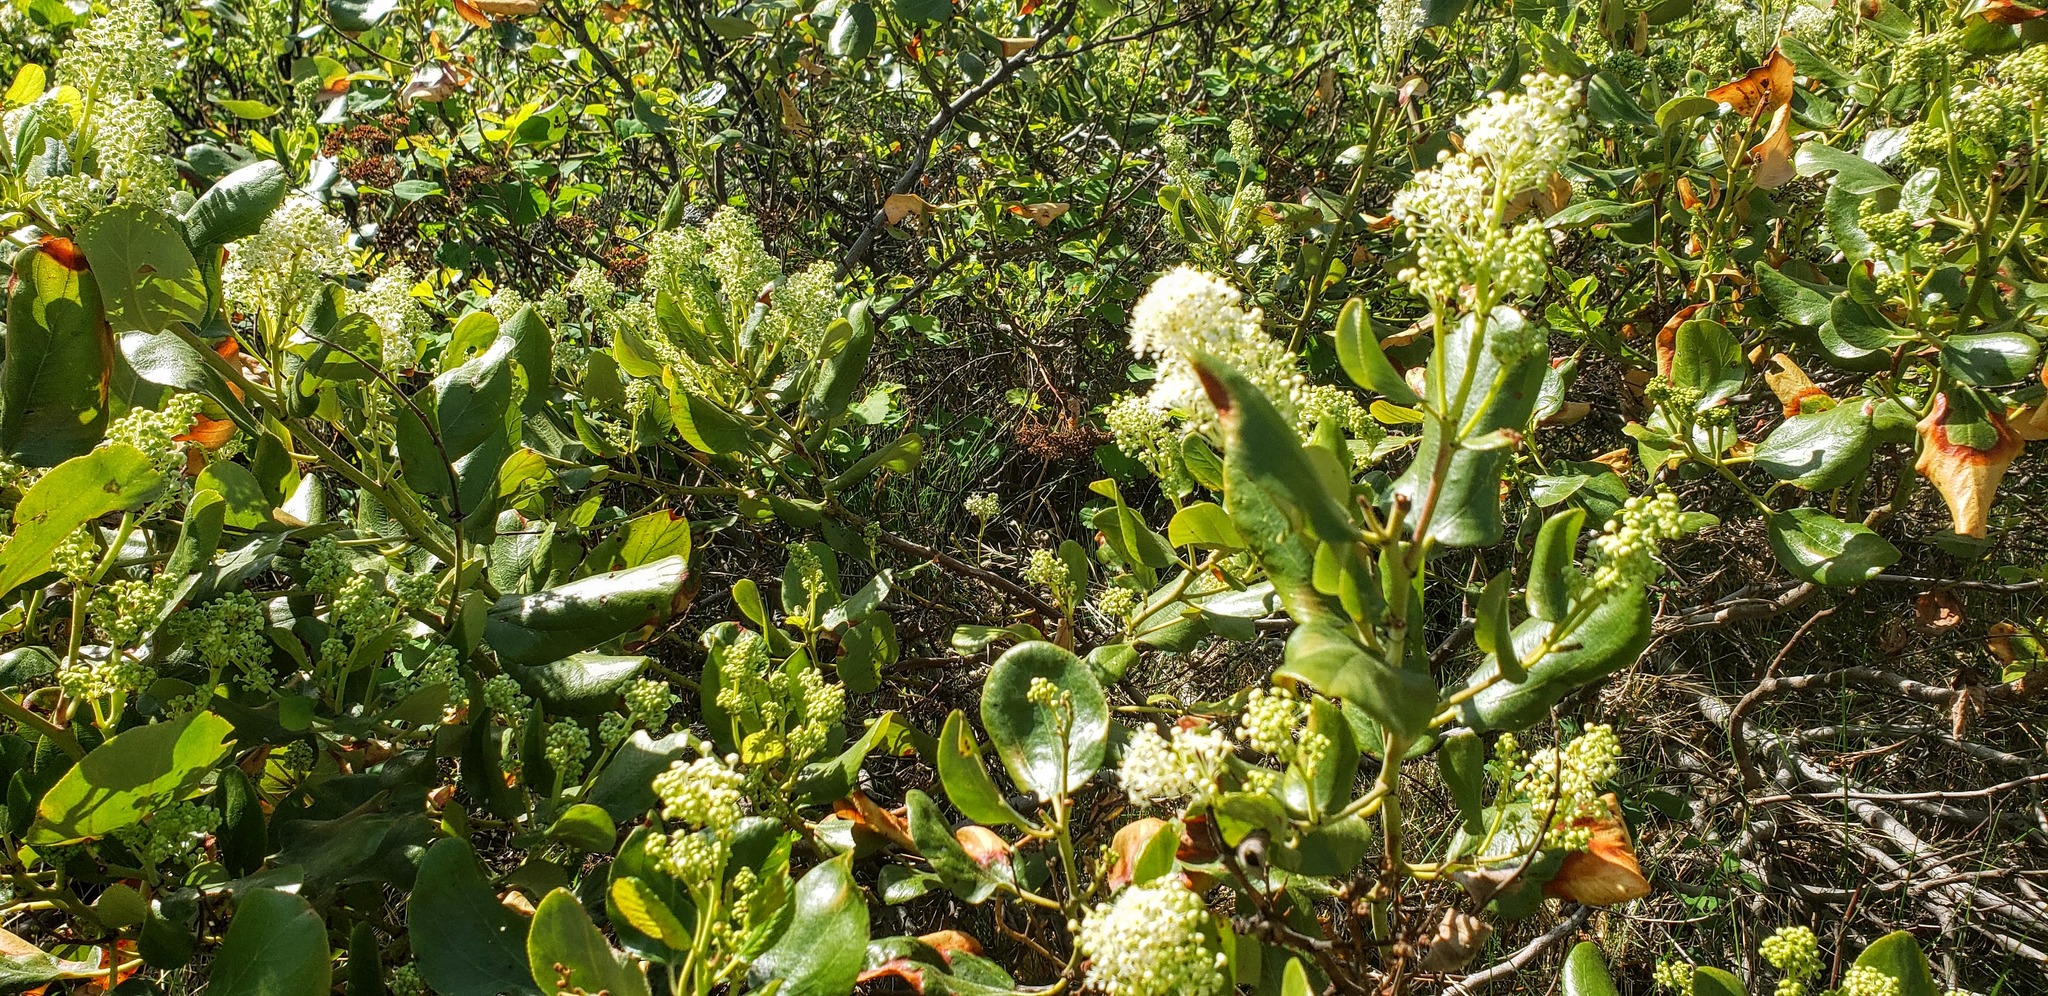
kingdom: Plantae
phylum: Tracheophyta
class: Magnoliopsida
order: Rosales
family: Rhamnaceae
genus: Ceanothus
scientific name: Ceanothus velutinus
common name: Snowbrush
